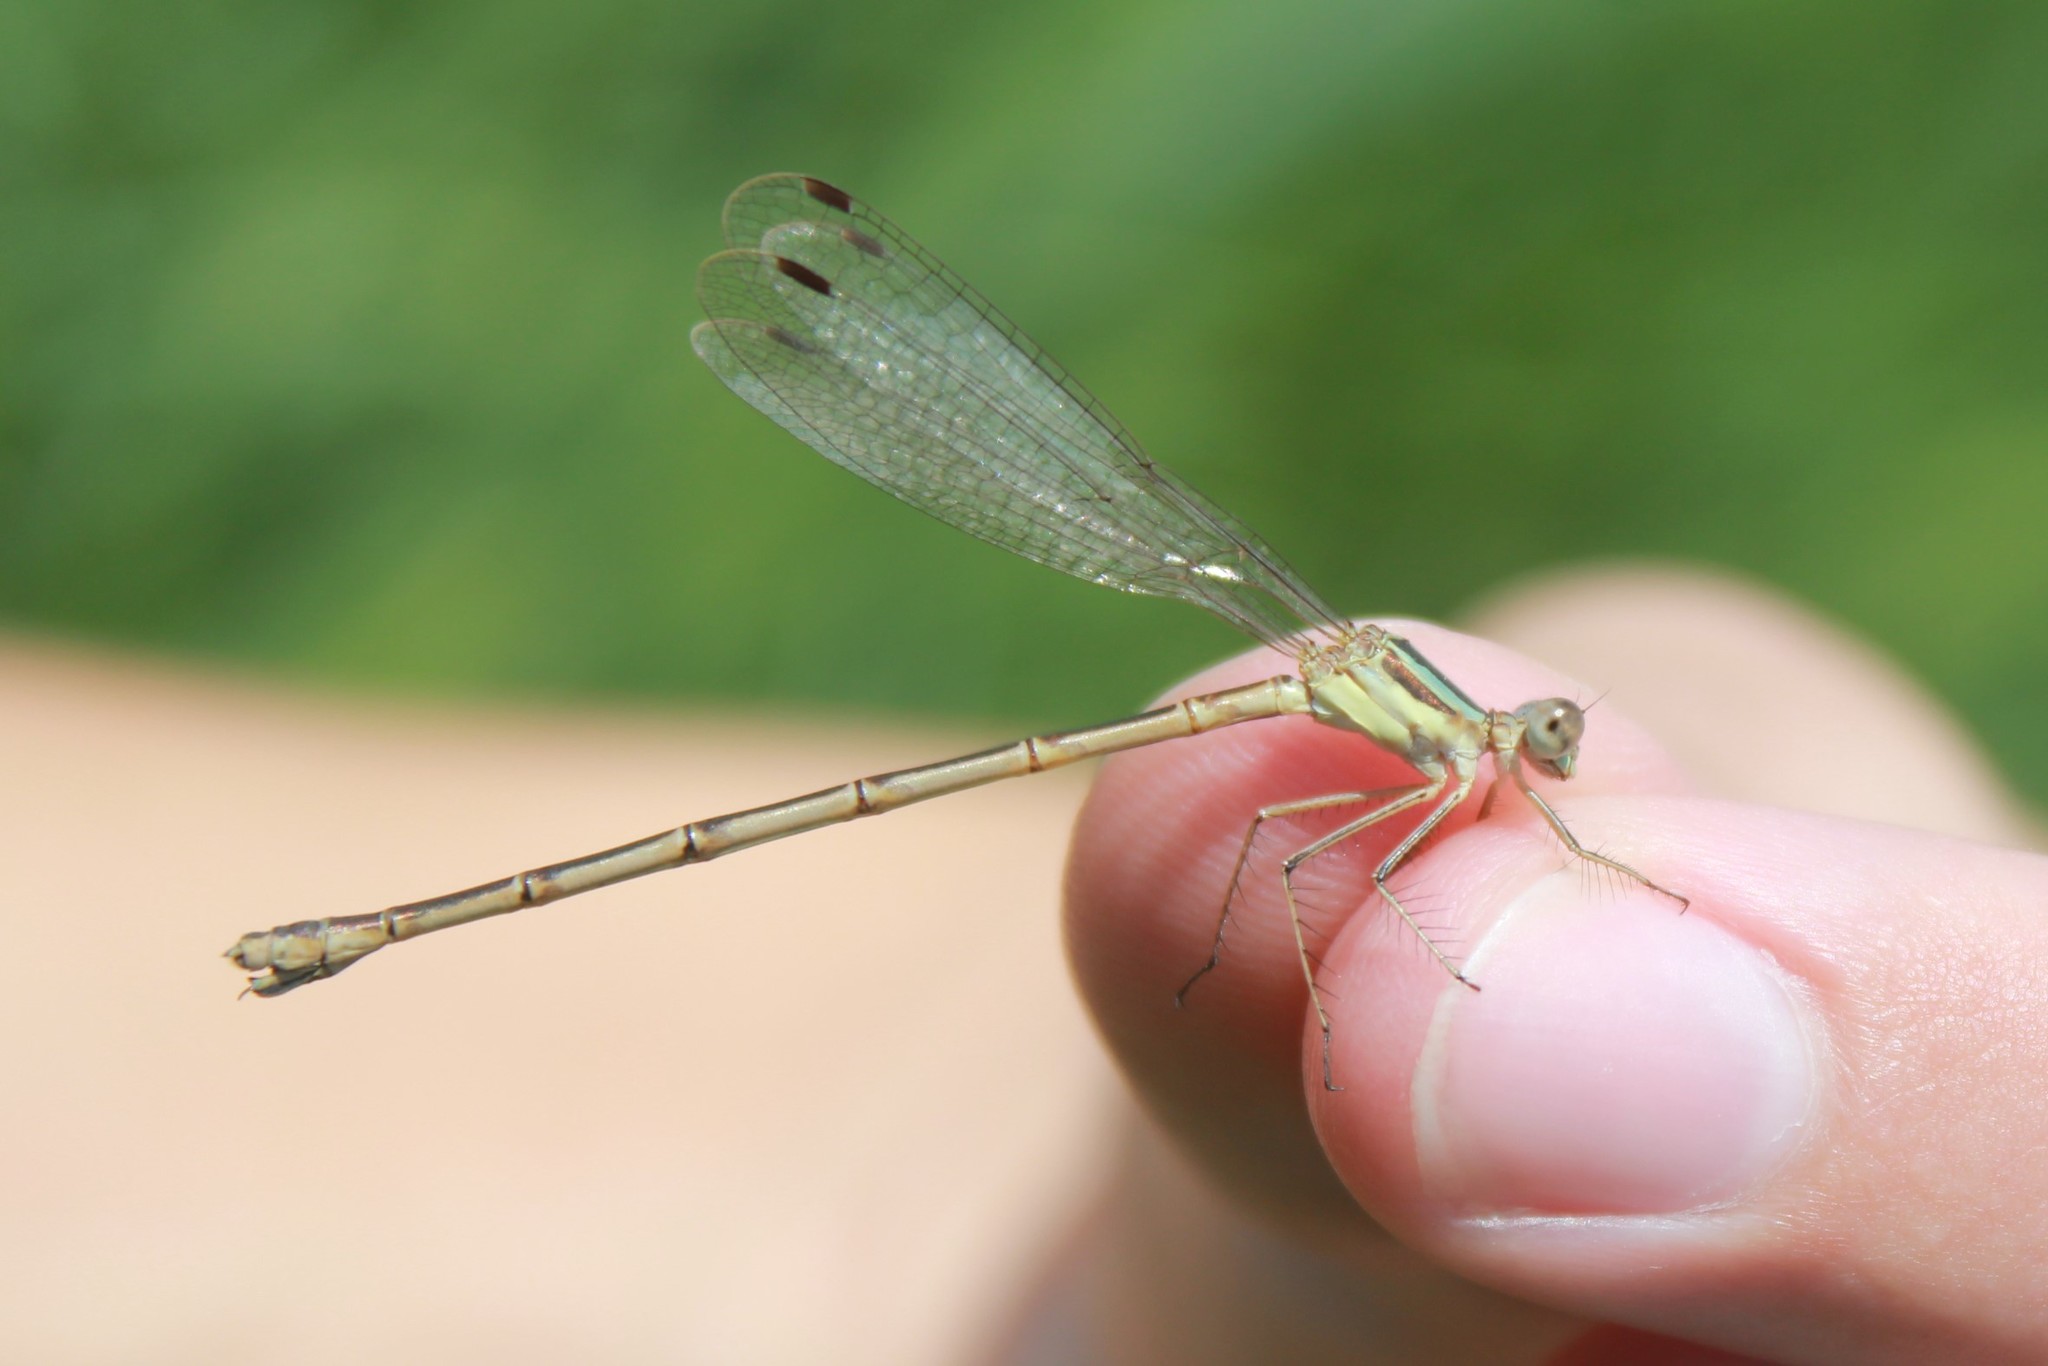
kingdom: Animalia
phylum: Arthropoda
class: Insecta
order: Odonata
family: Lestidae
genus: Lestes
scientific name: Lestes rectangularis
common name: Slender spreadwing
